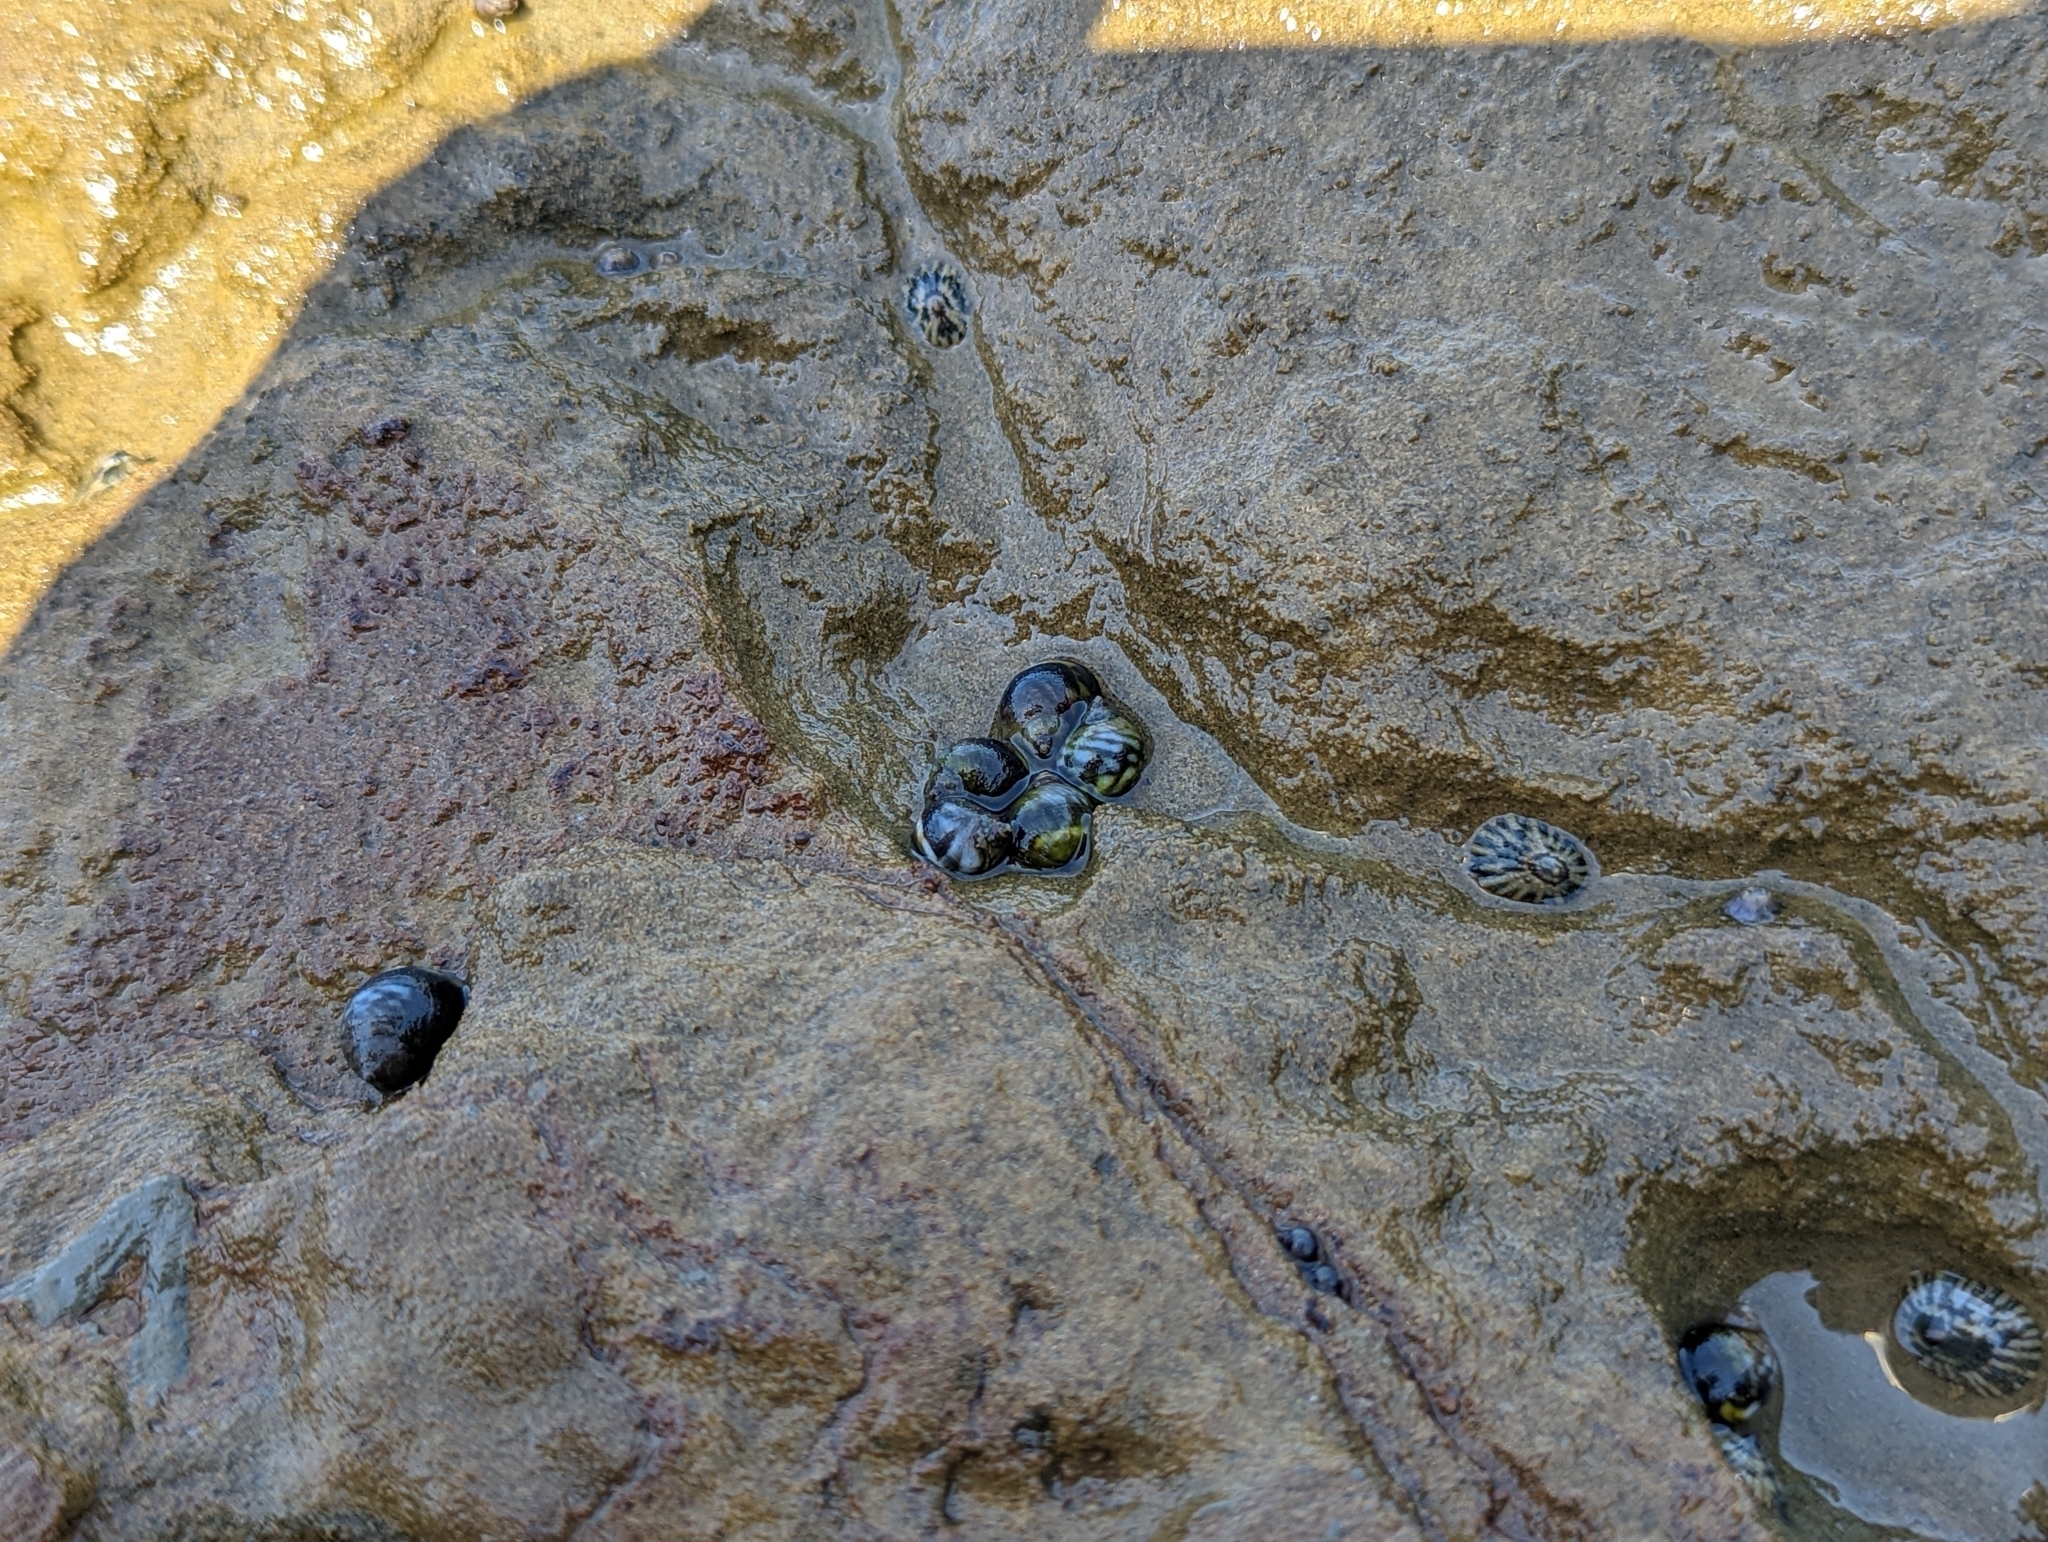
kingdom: Animalia
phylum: Mollusca
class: Gastropoda
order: Littorinimorpha
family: Littorinidae
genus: Littorina
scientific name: Littorina scutulata
